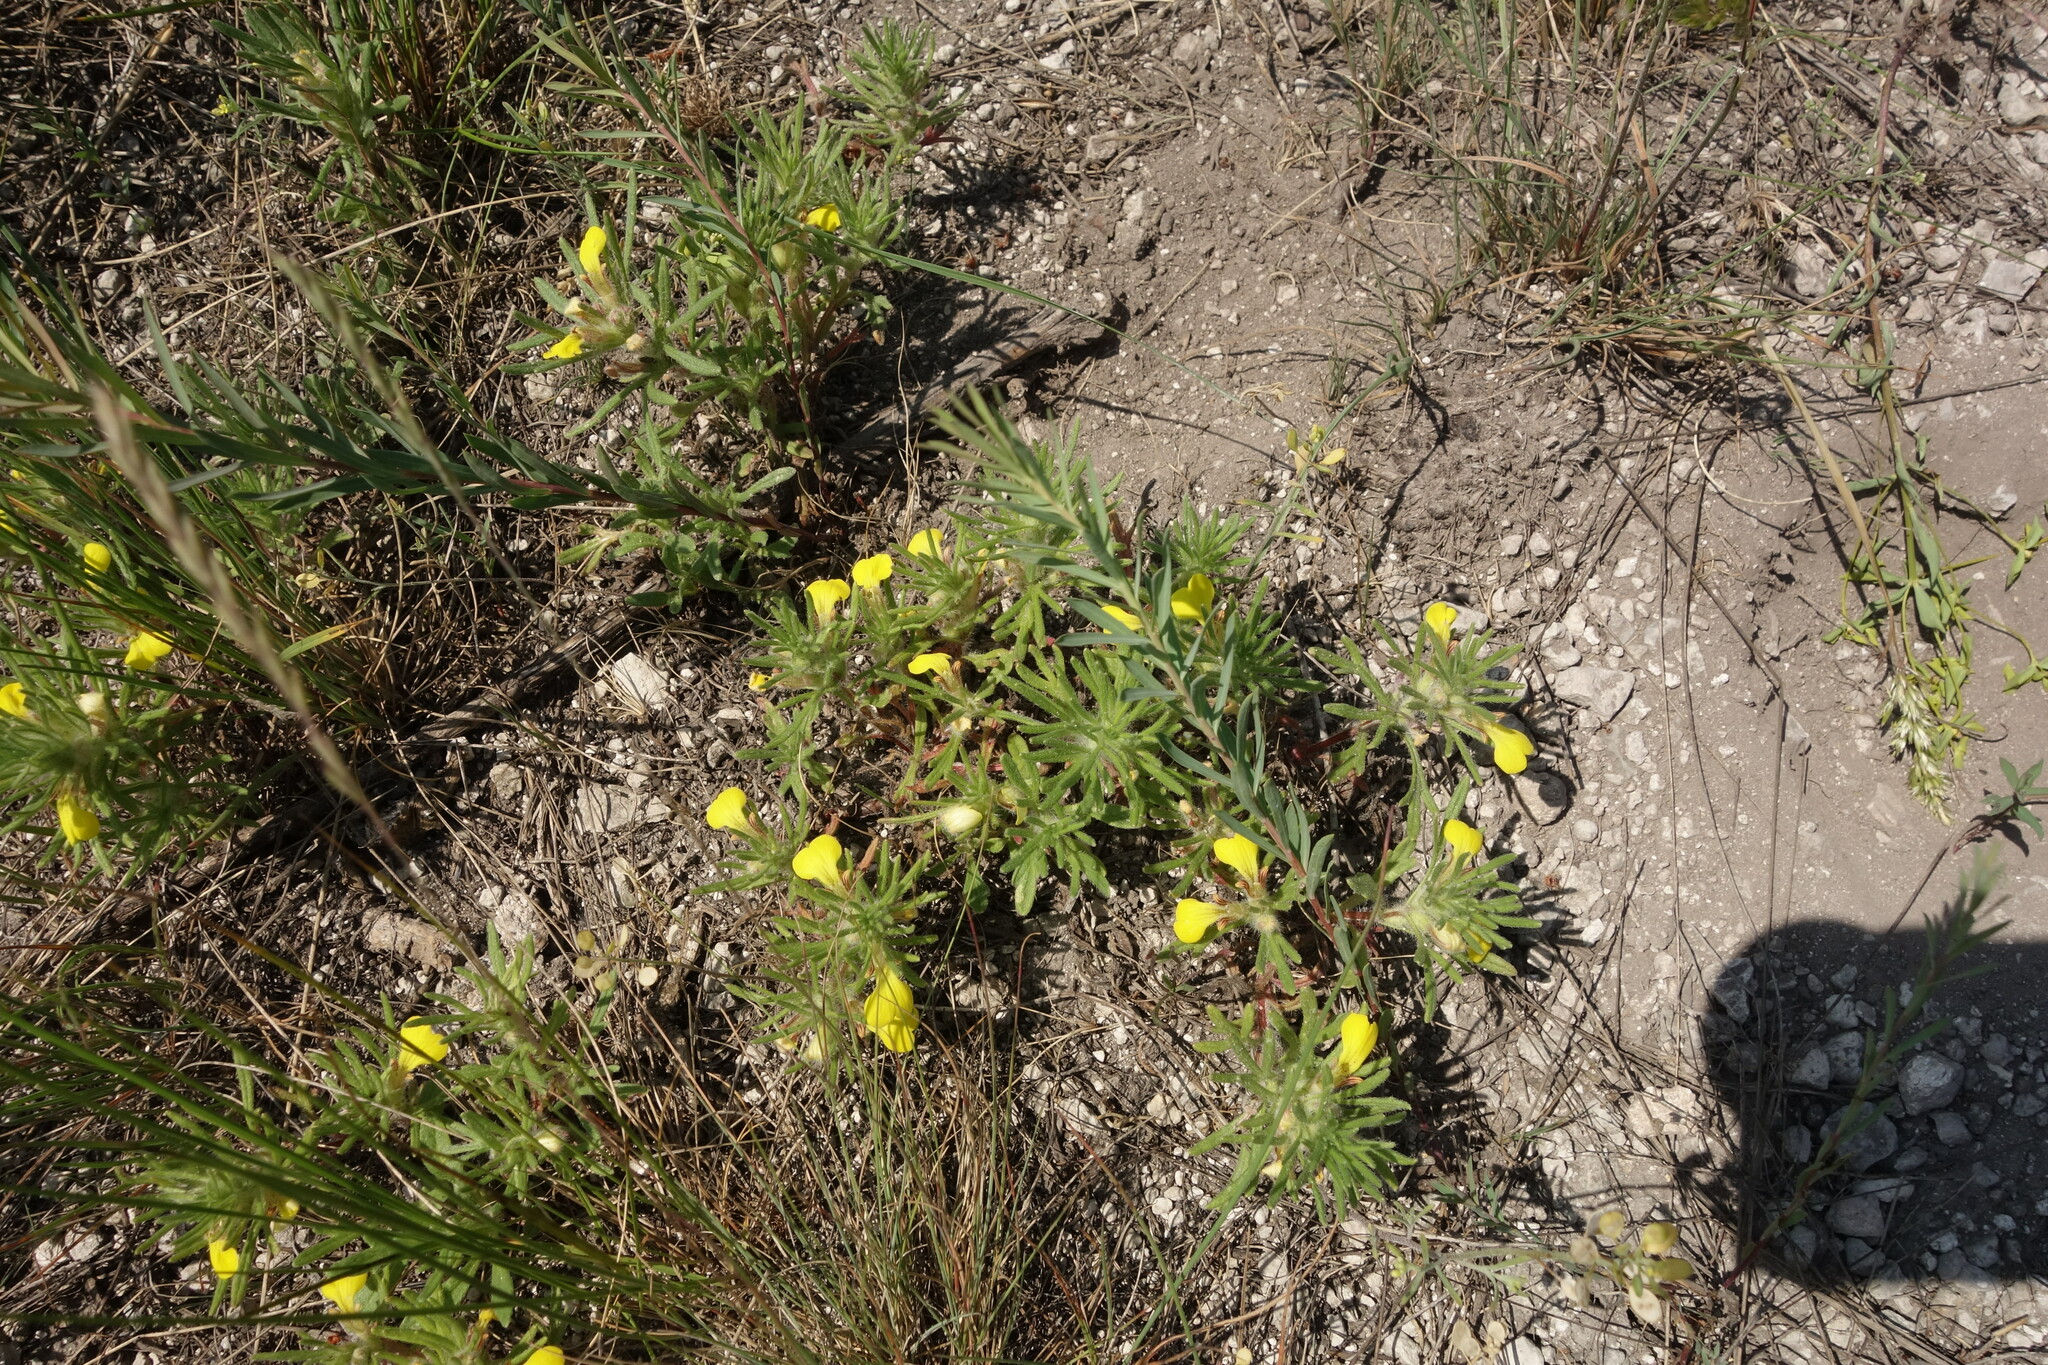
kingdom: Plantae
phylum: Tracheophyta
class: Magnoliopsida
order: Lamiales
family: Lamiaceae
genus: Ajuga
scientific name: Ajuga chamaepitys
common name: Ground-pine
